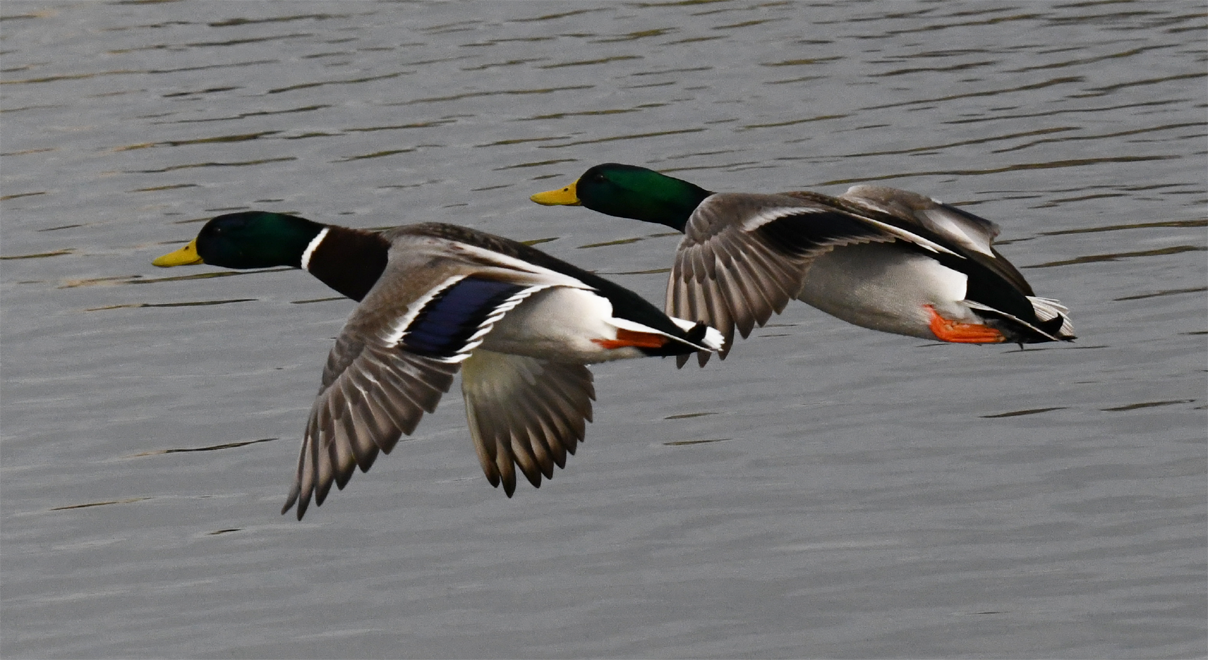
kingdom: Animalia
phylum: Chordata
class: Aves
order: Anseriformes
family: Anatidae
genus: Anas
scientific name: Anas platyrhynchos
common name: Mallard
